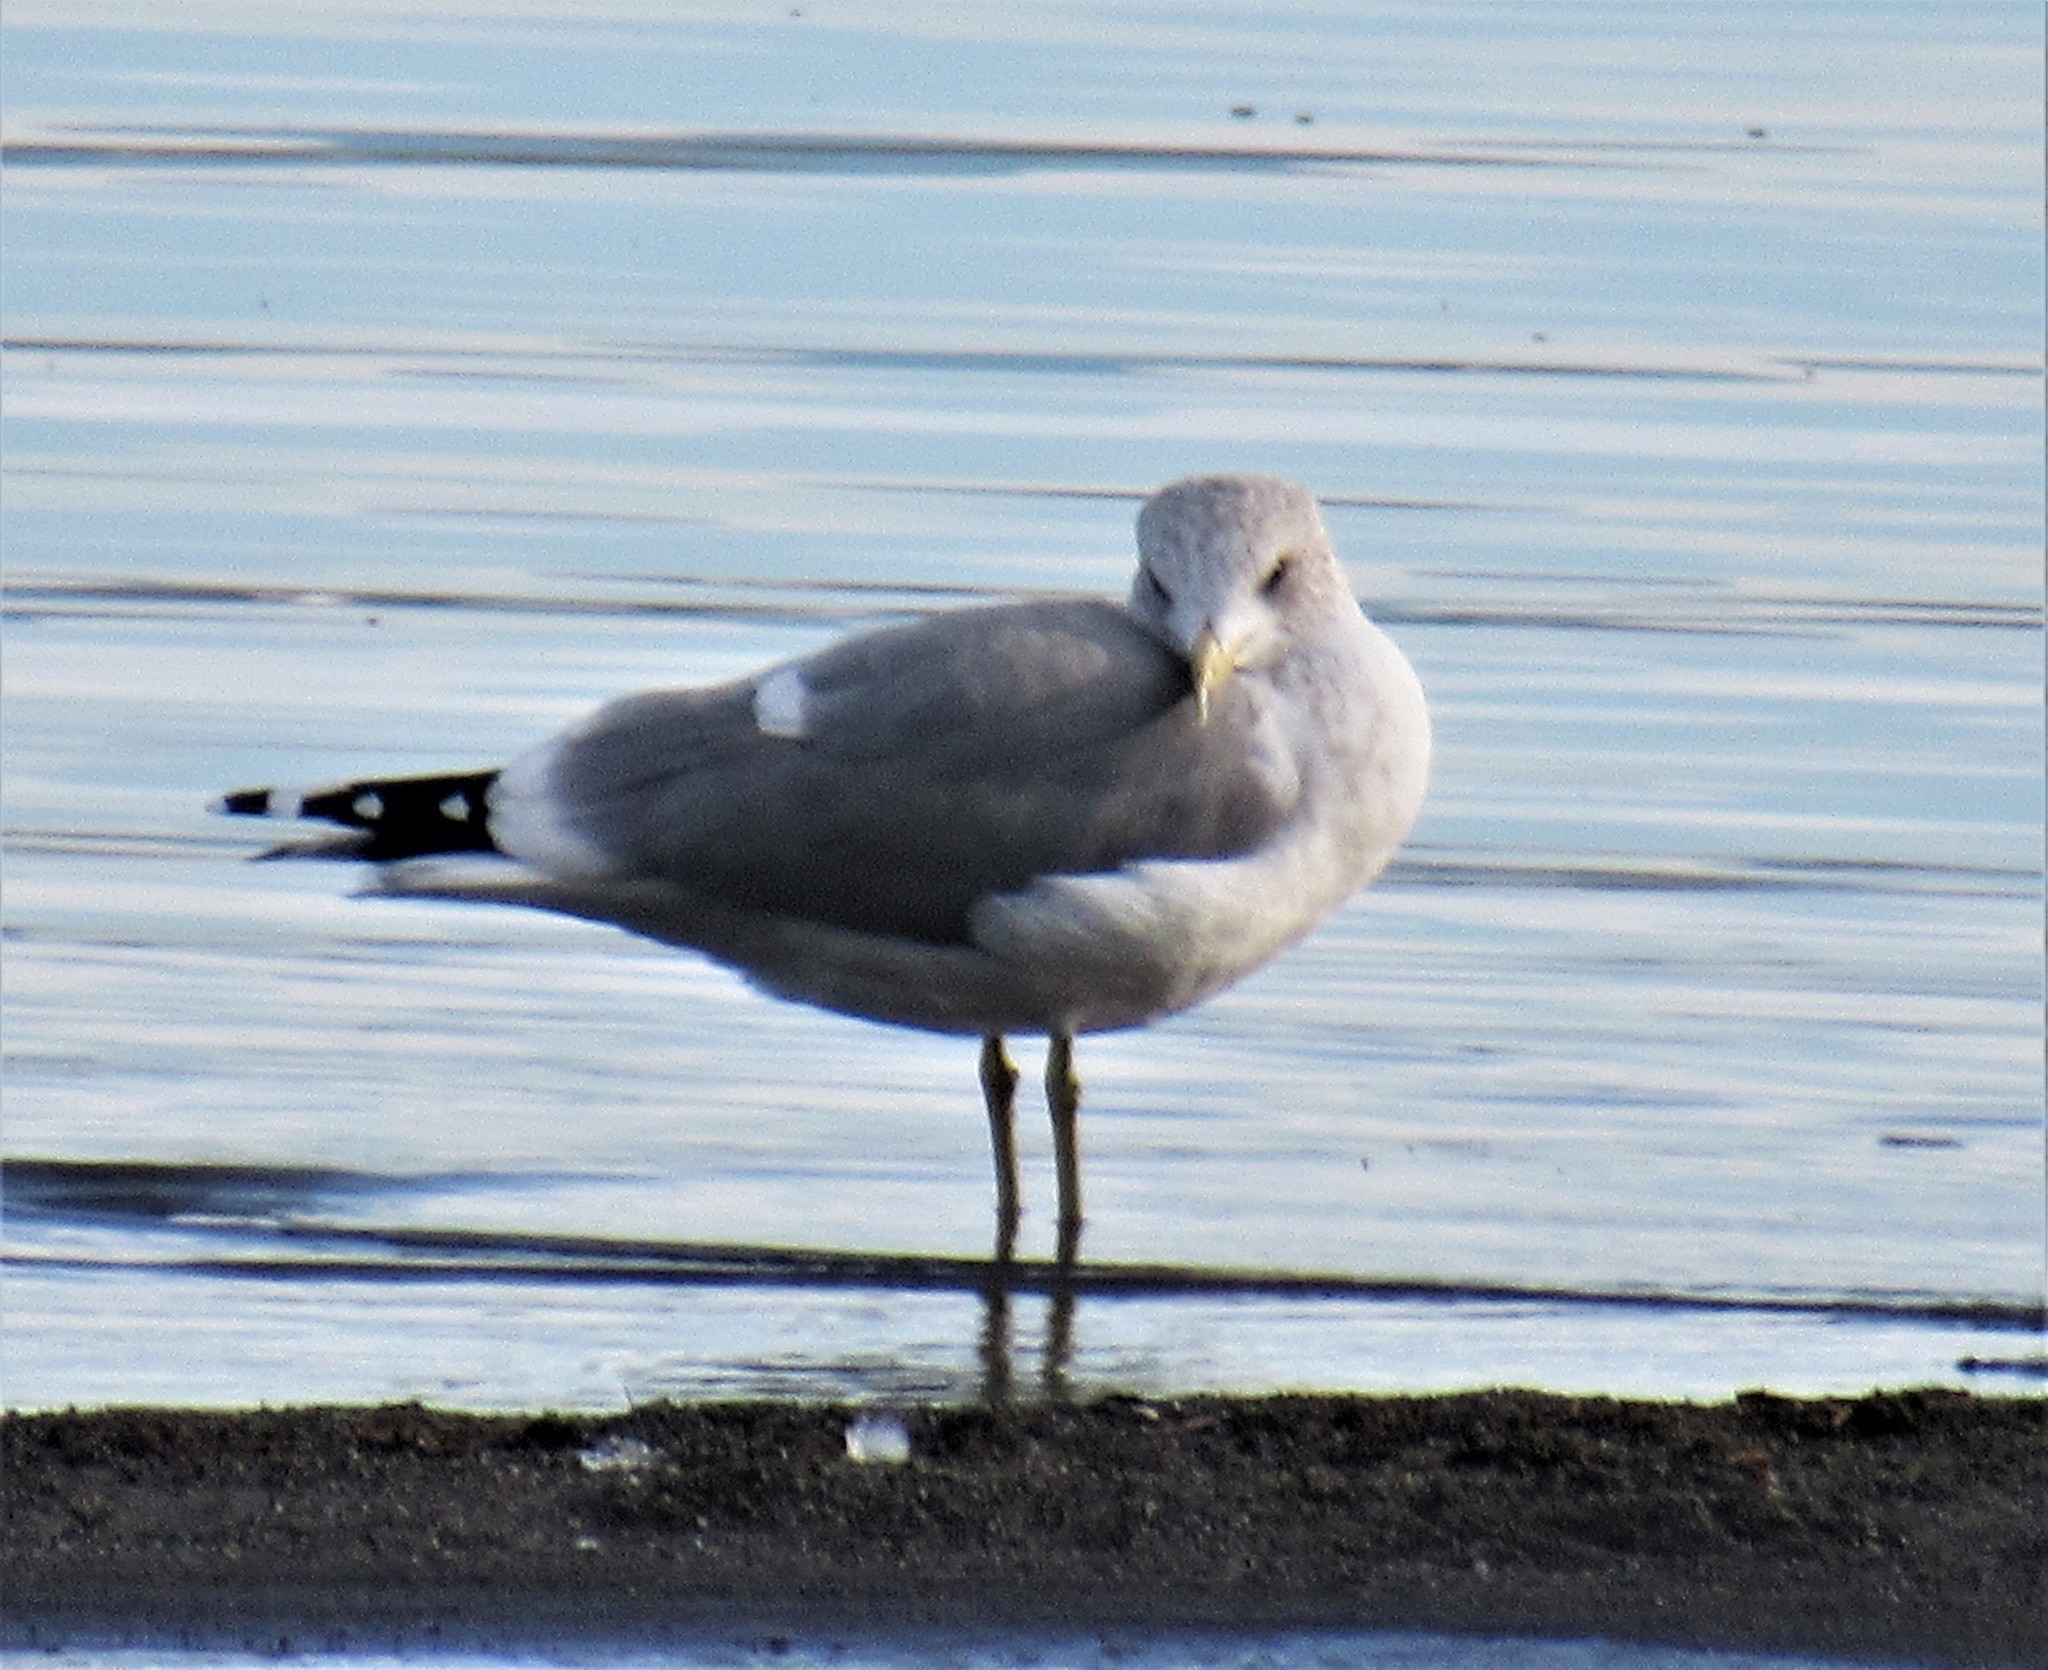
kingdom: Animalia
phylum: Chordata
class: Aves
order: Charadriiformes
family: Laridae
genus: Larus
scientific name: Larus brachyrhynchus
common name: Short-billed gull
